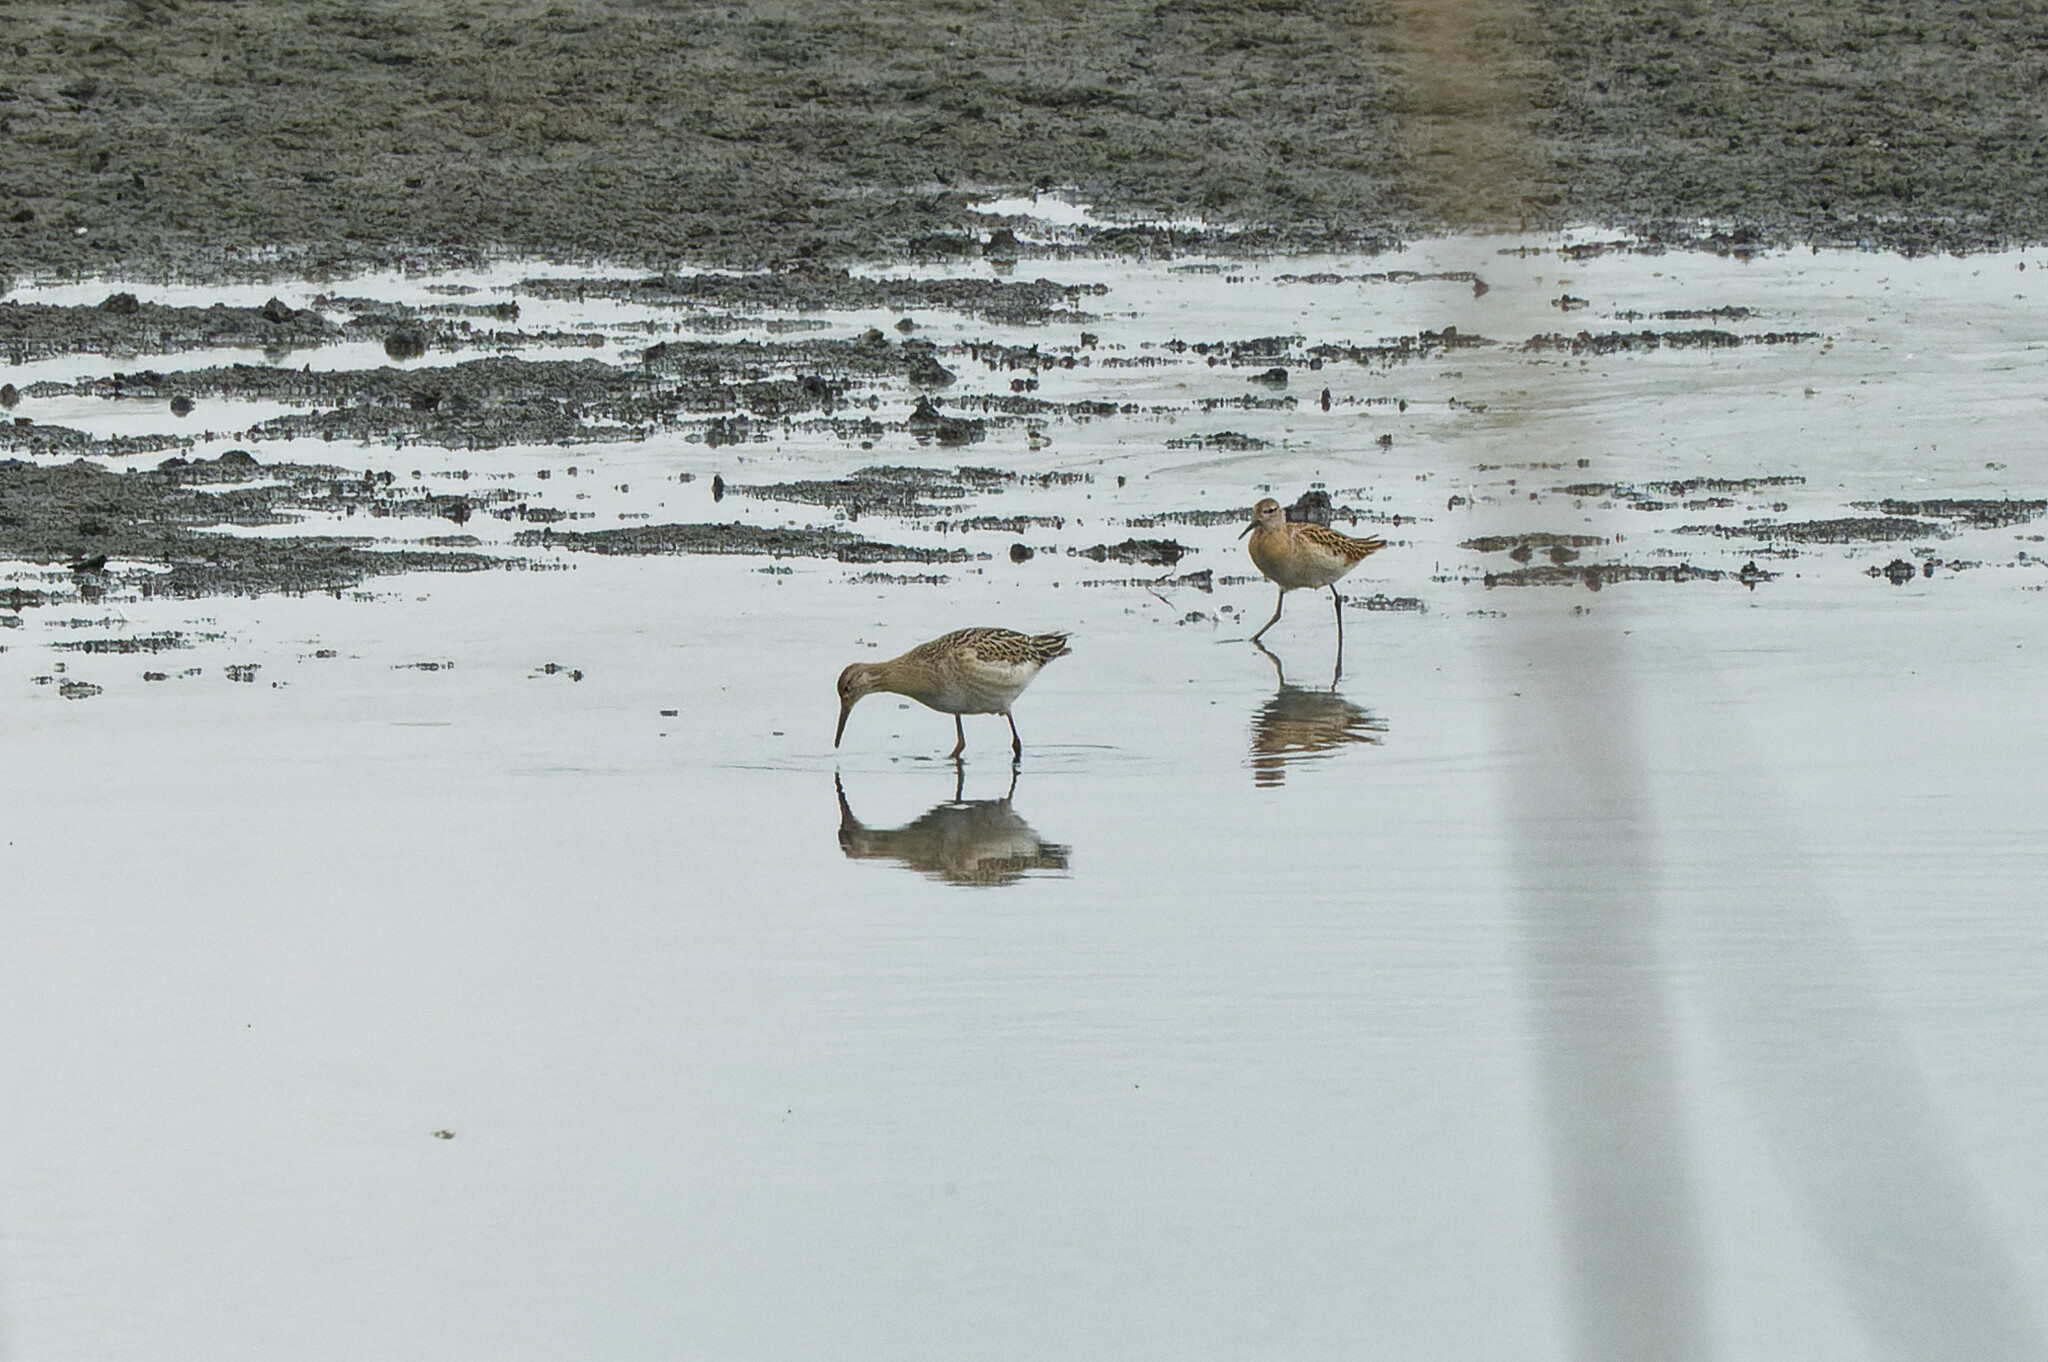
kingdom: Animalia
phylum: Chordata
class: Aves
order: Charadriiformes
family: Scolopacidae
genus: Calidris
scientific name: Calidris pugnax
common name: Ruff
